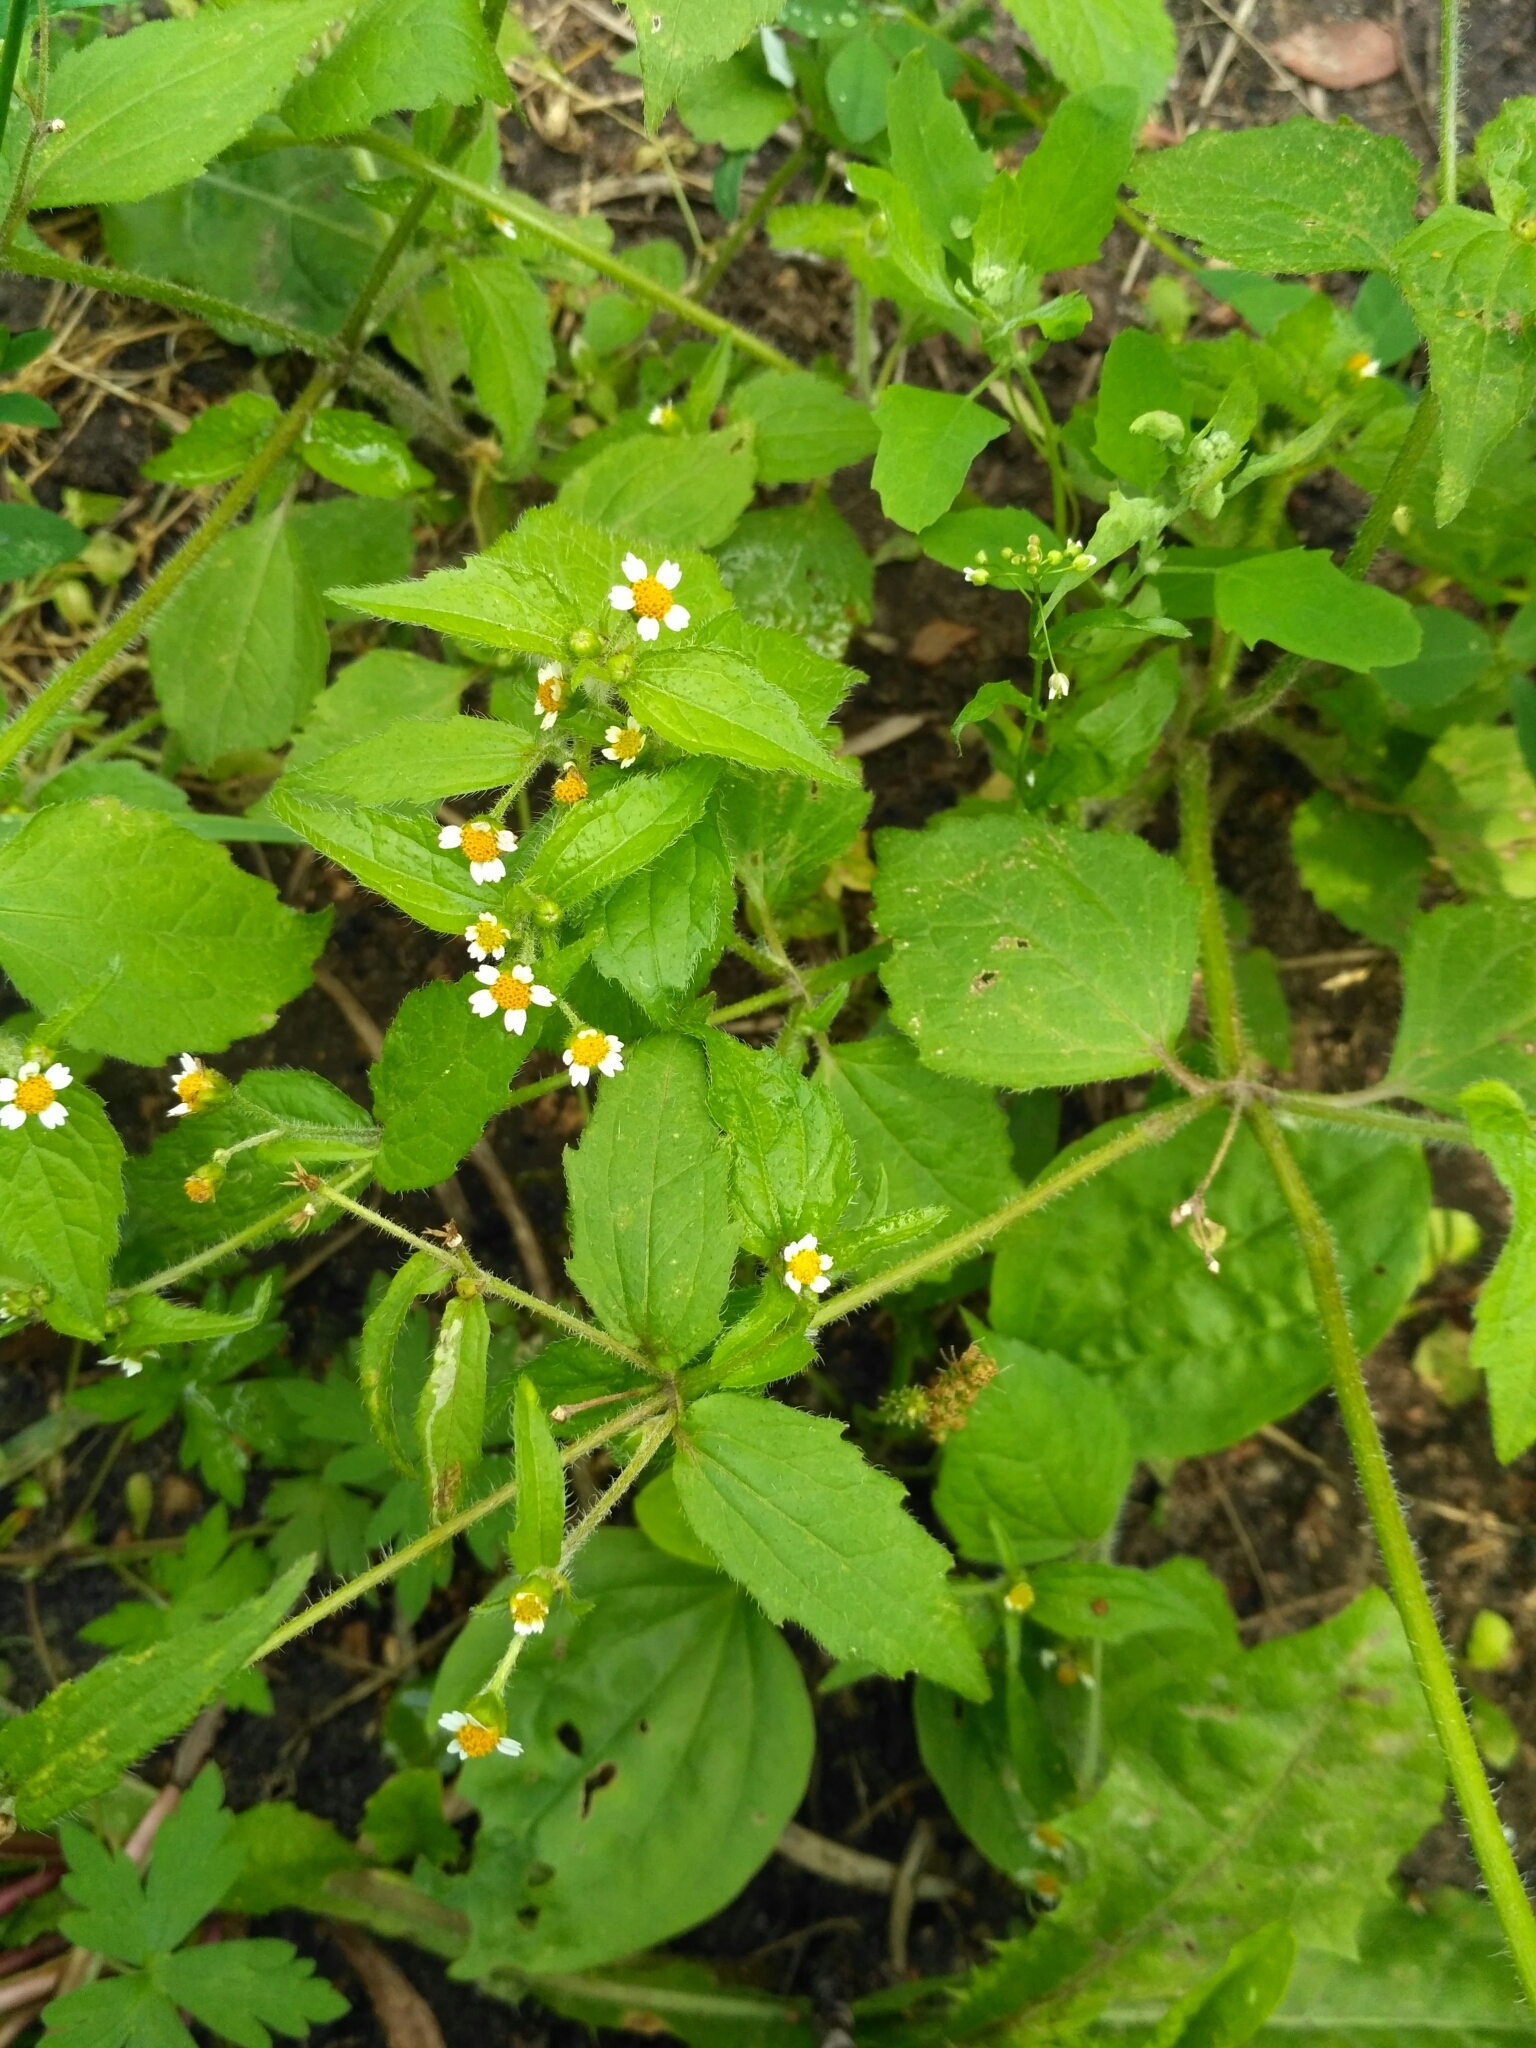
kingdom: Plantae
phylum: Tracheophyta
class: Magnoliopsida
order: Asterales
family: Asteraceae
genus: Galinsoga
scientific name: Galinsoga quadriradiata
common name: Shaggy soldier
